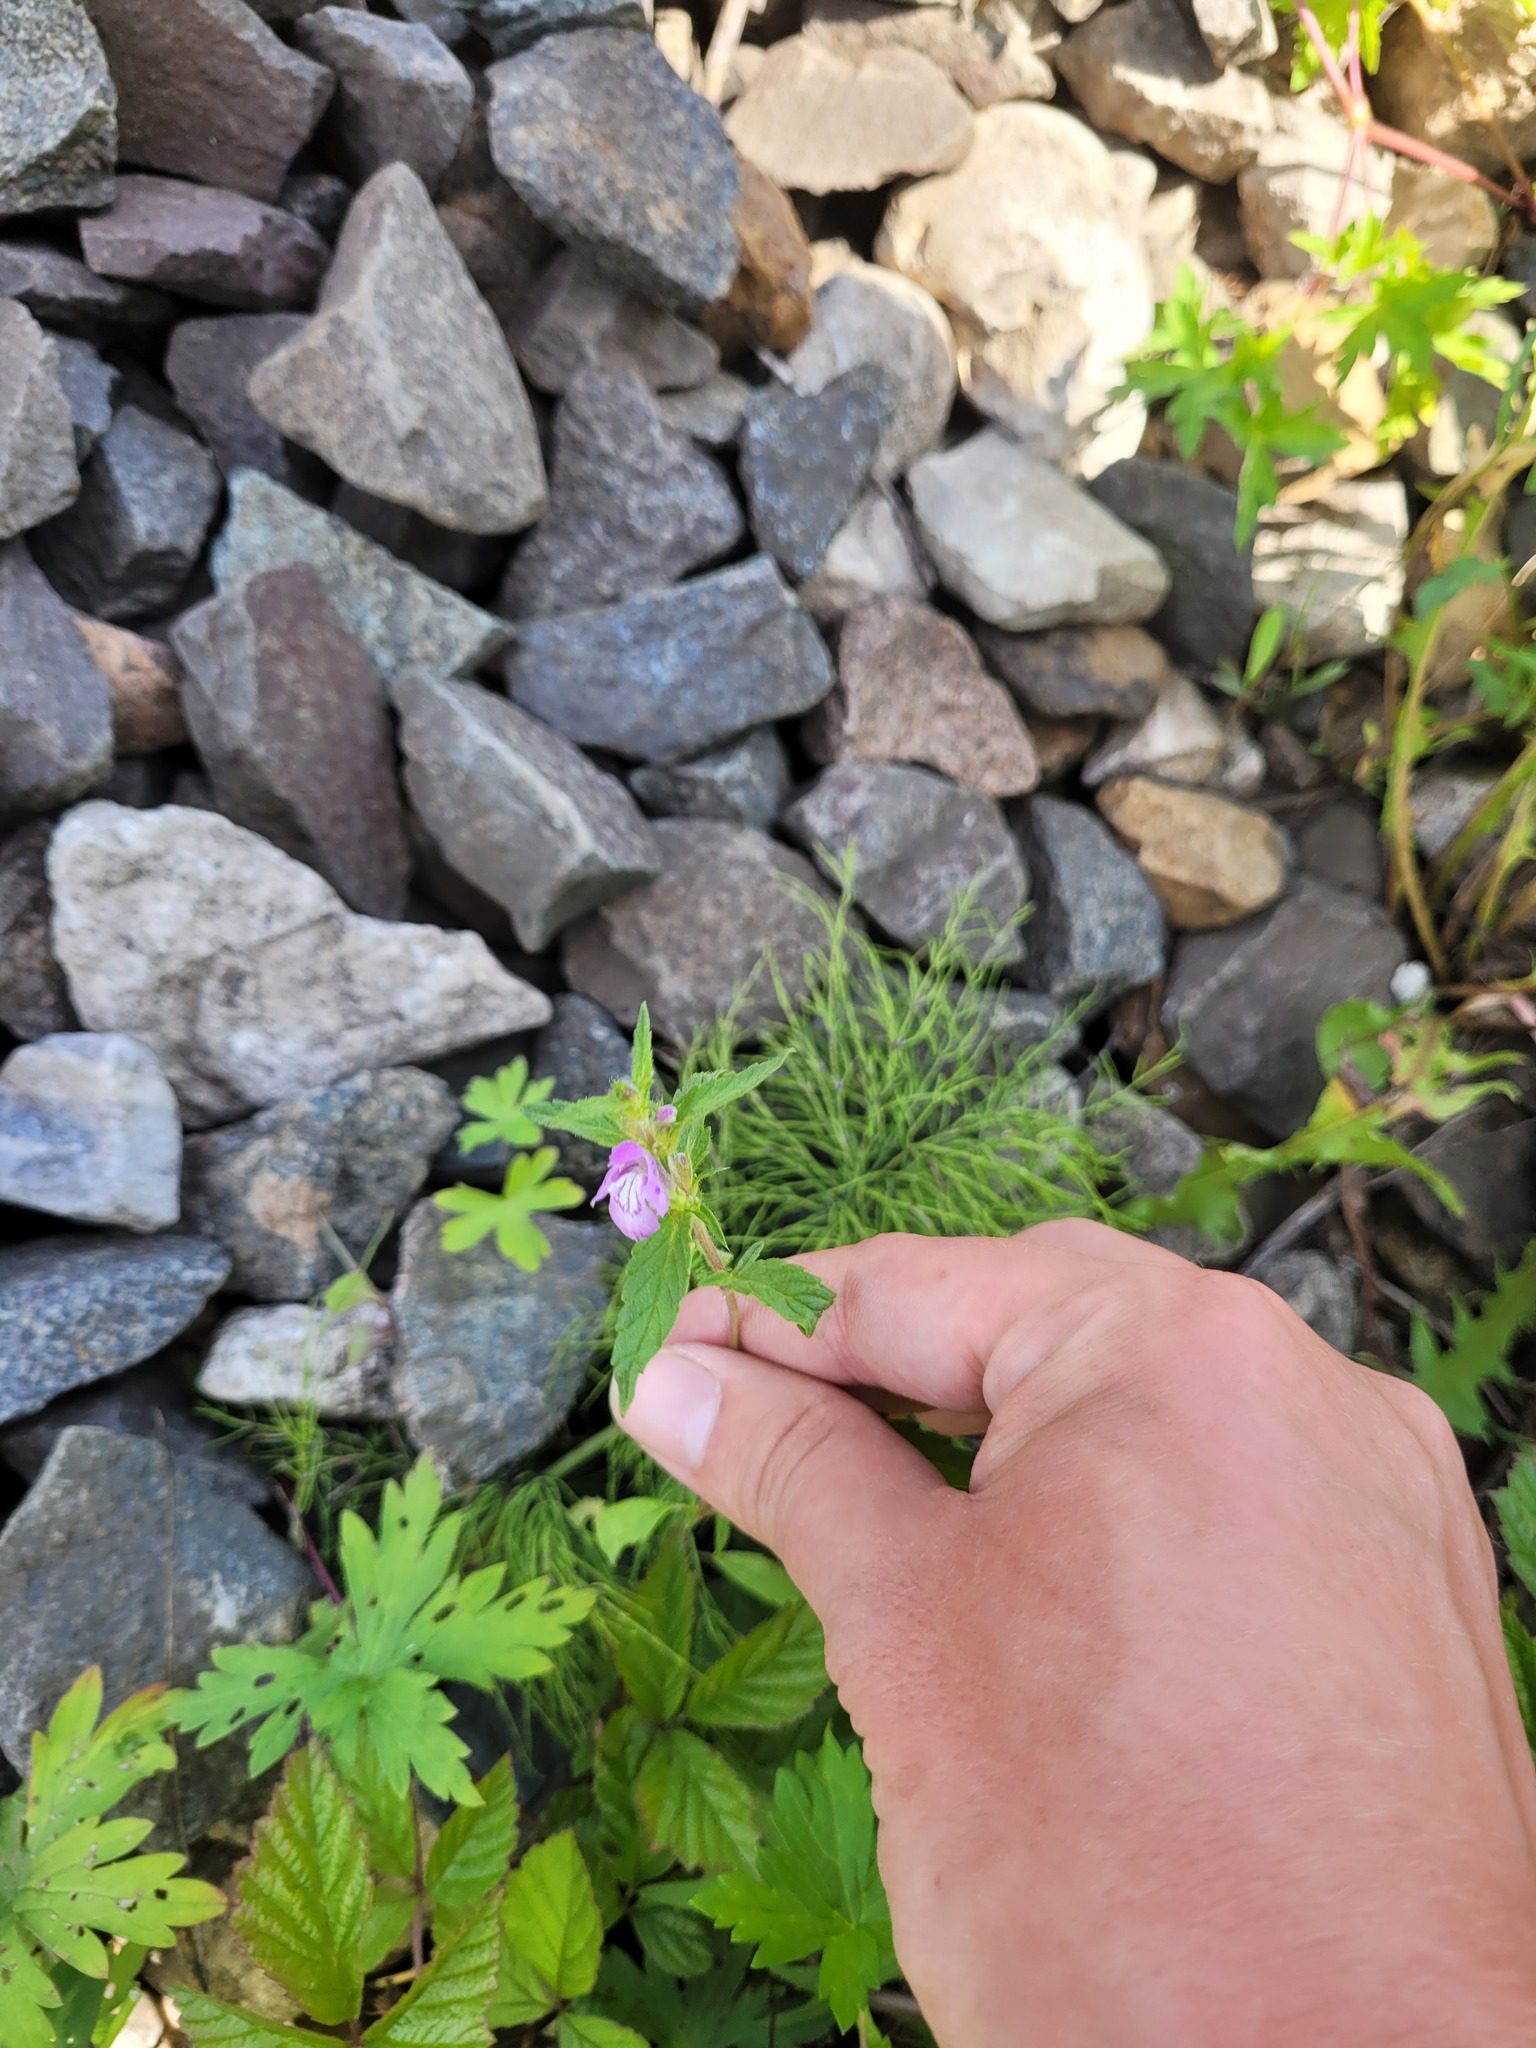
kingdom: Plantae
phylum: Tracheophyta
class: Magnoliopsida
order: Lamiales
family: Lamiaceae
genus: Galeopsis
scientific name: Galeopsis ladanum
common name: Broad-leaved hemp-nettle
